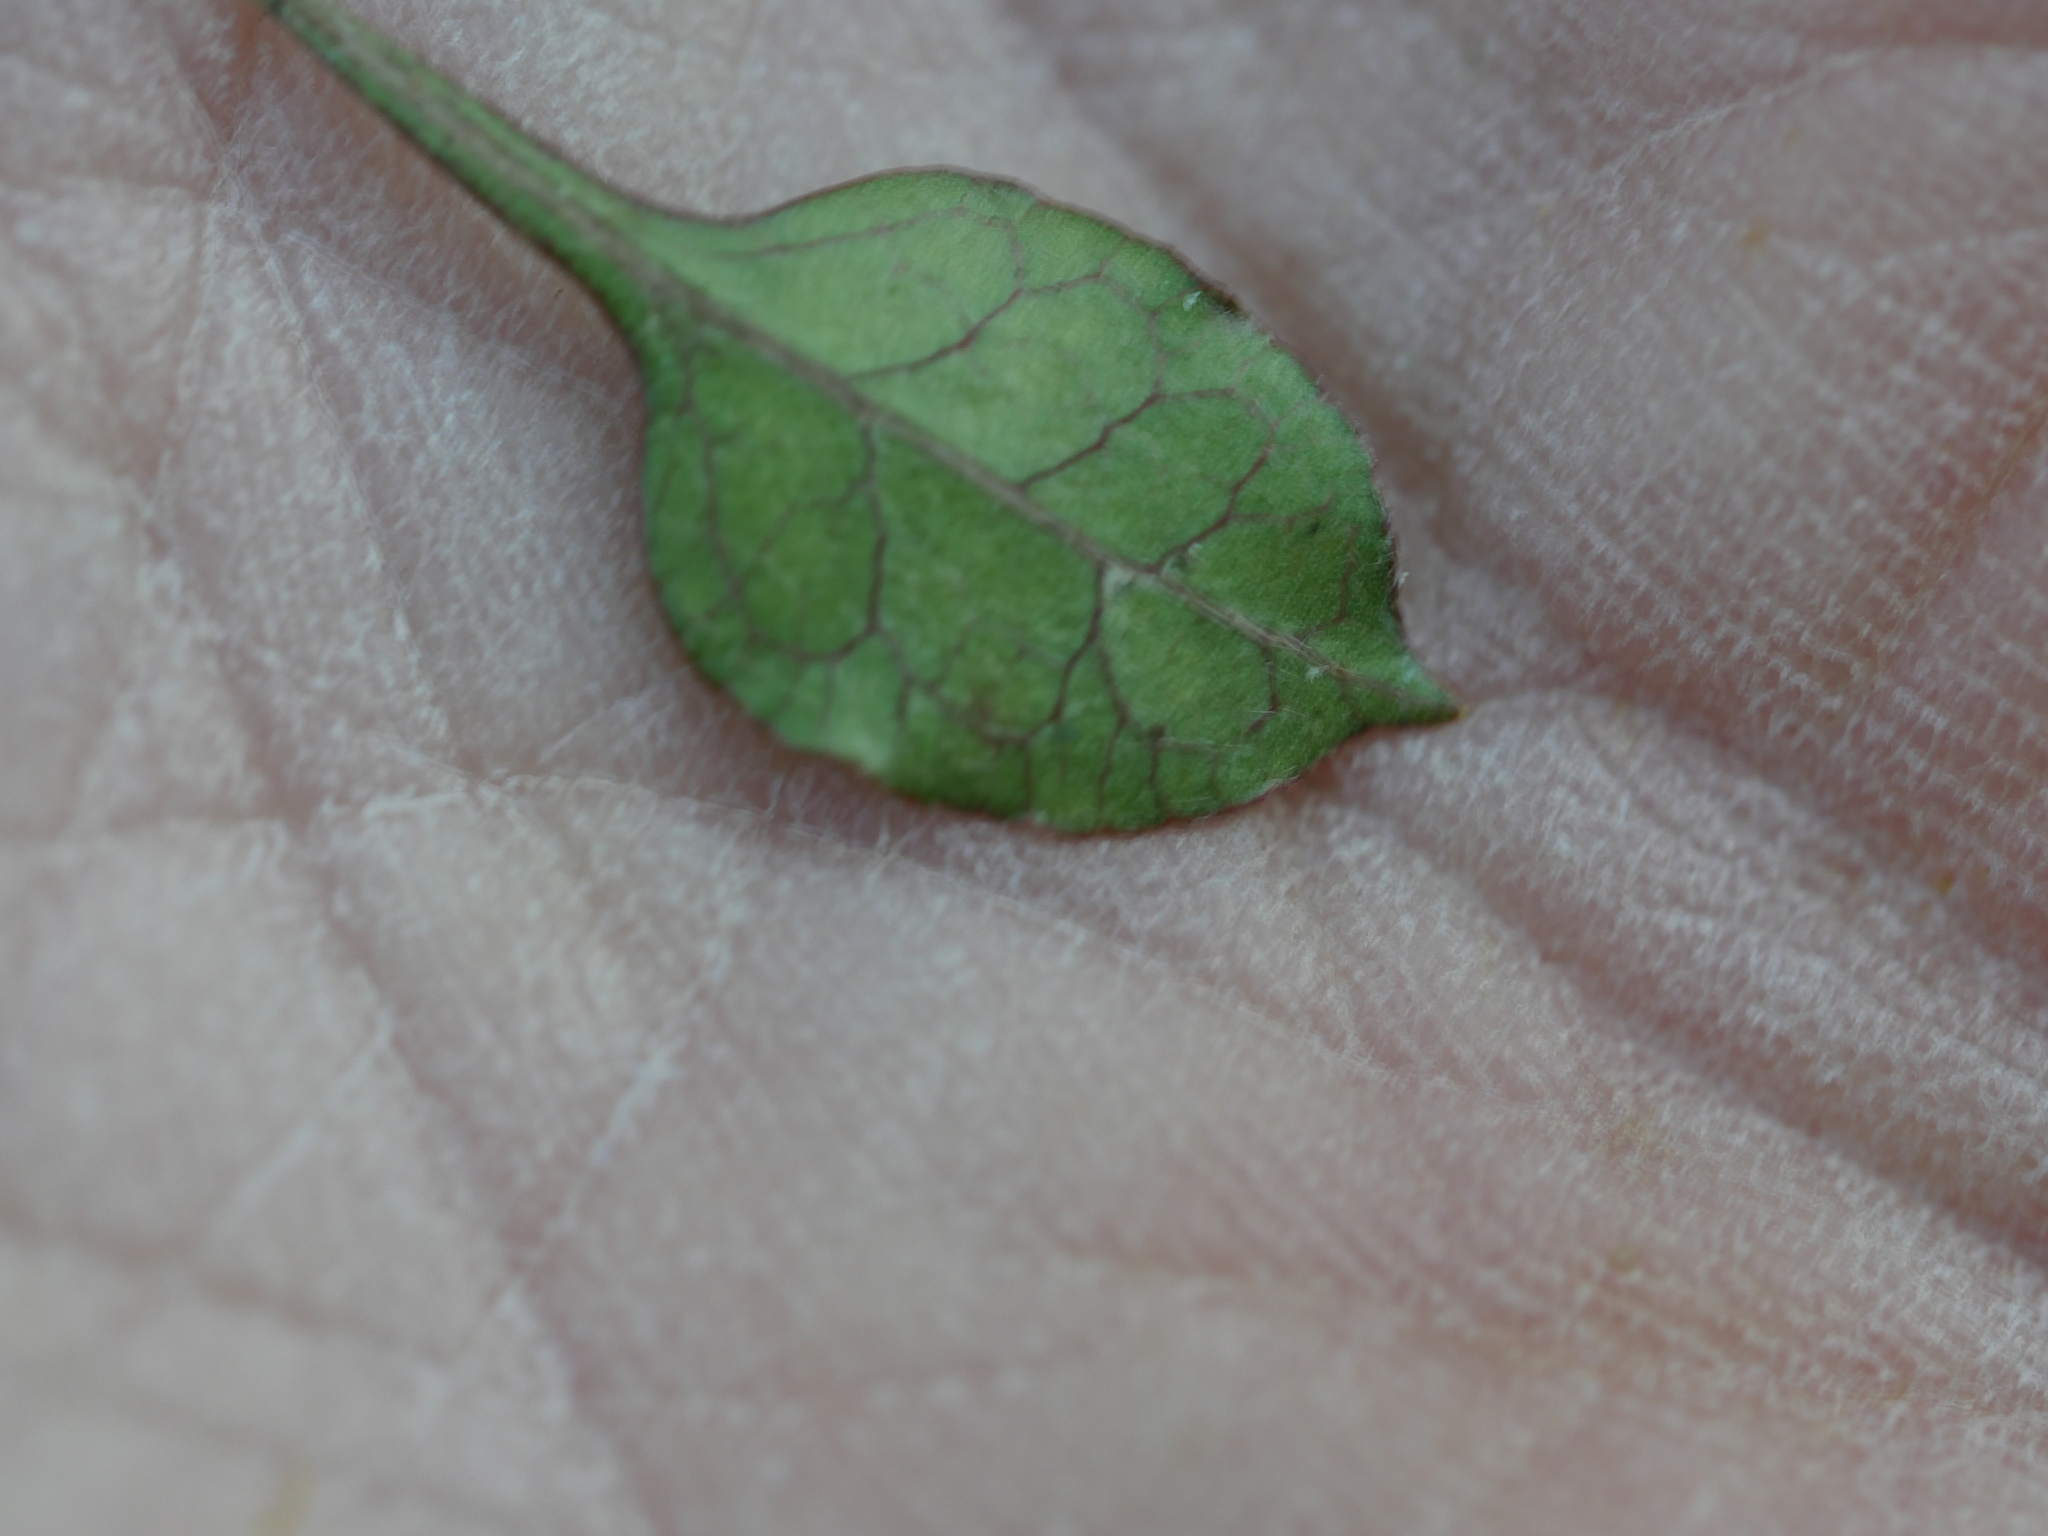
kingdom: Plantae
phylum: Tracheophyta
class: Magnoliopsida
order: Gentianales
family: Rubiaceae
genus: Coprosma
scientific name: Coprosma areolata
